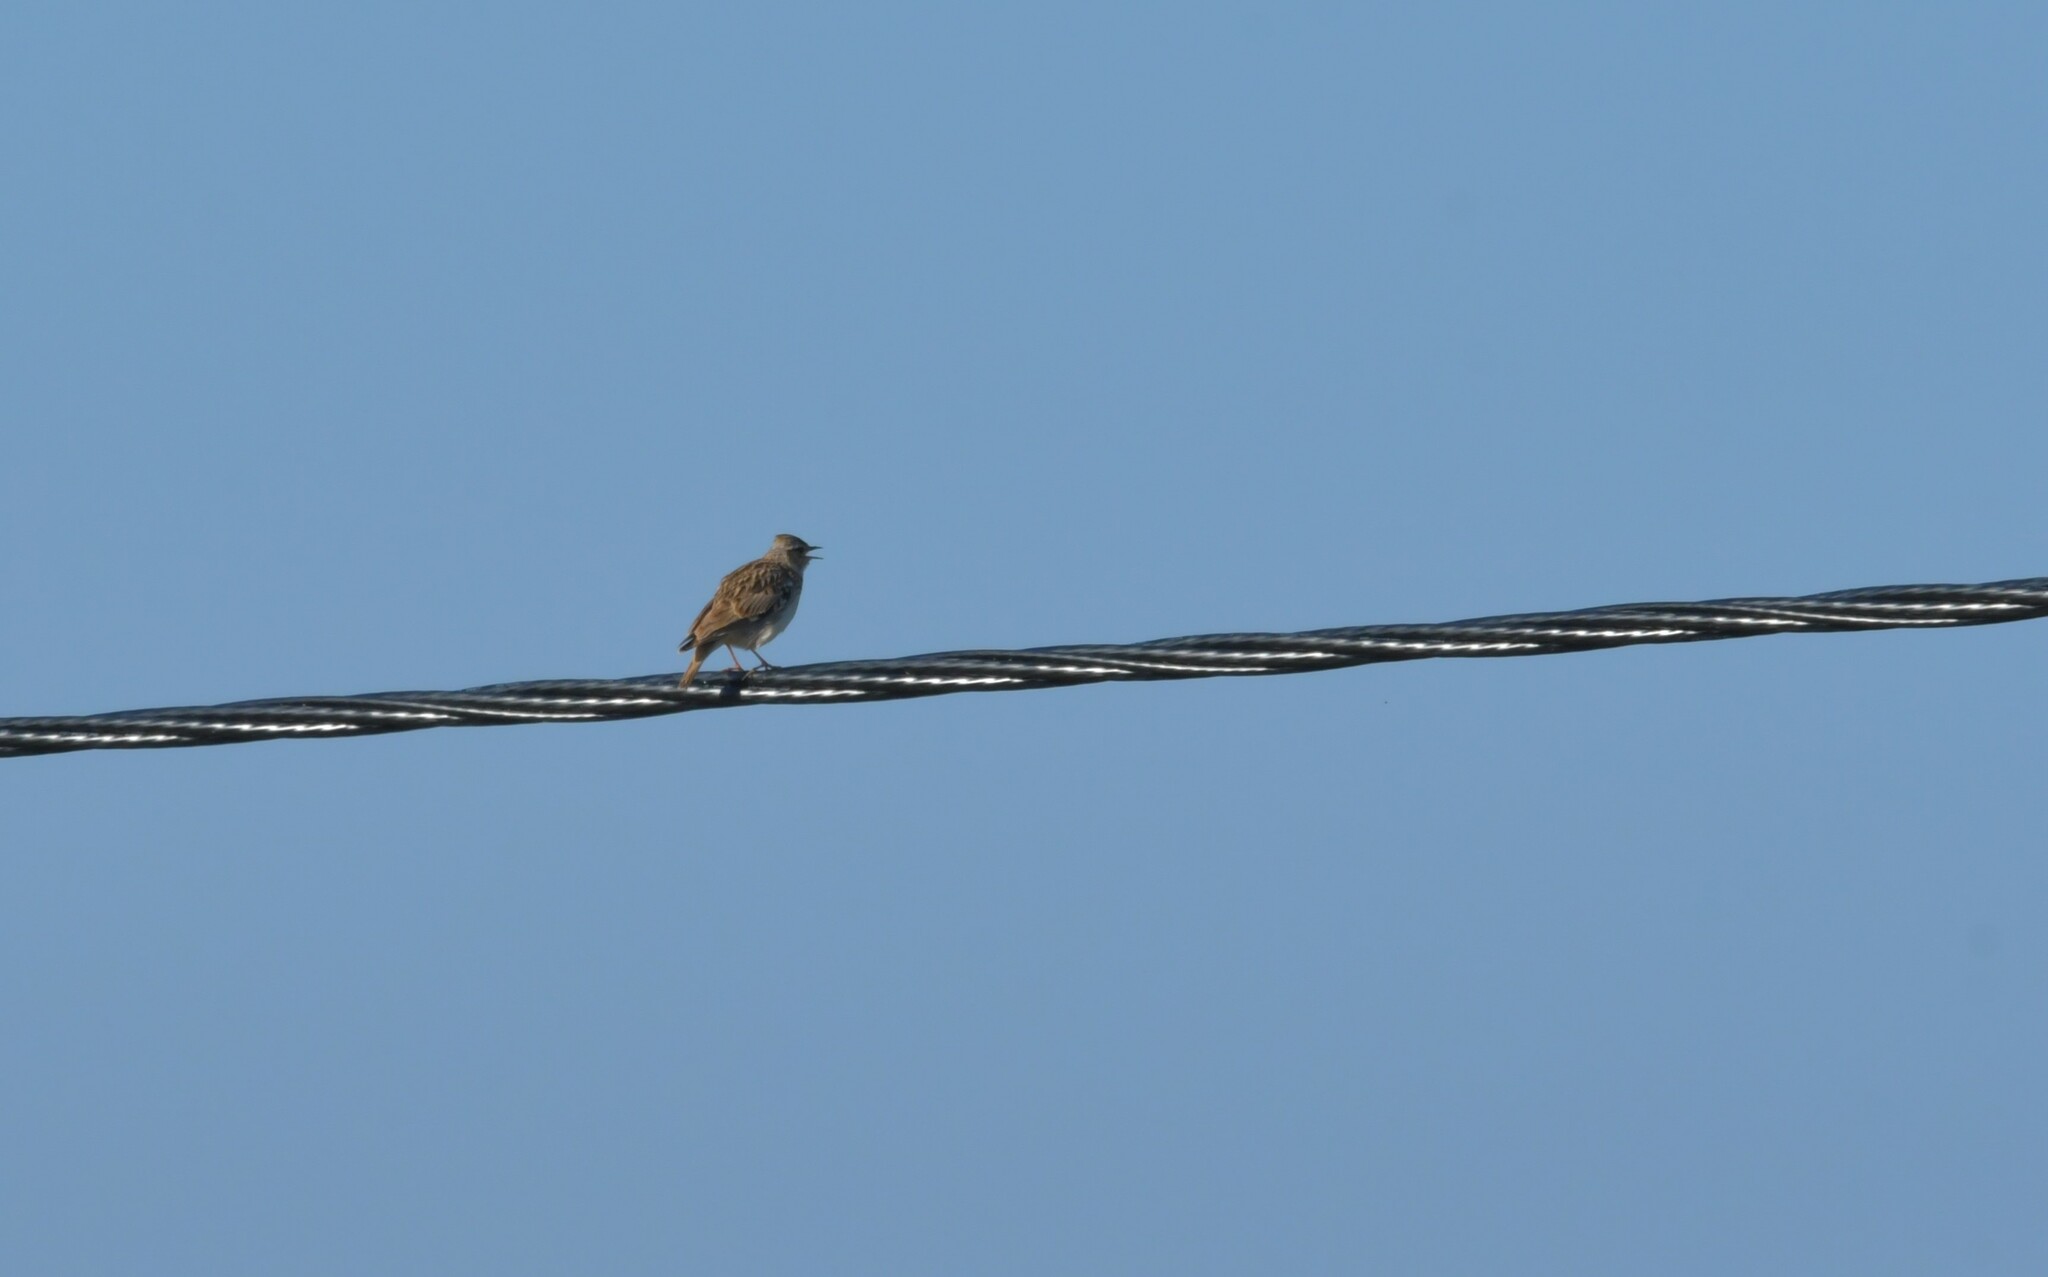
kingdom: Animalia
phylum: Chordata
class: Aves
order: Passeriformes
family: Alaudidae
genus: Lullula
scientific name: Lullula arborea
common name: Woodlark
